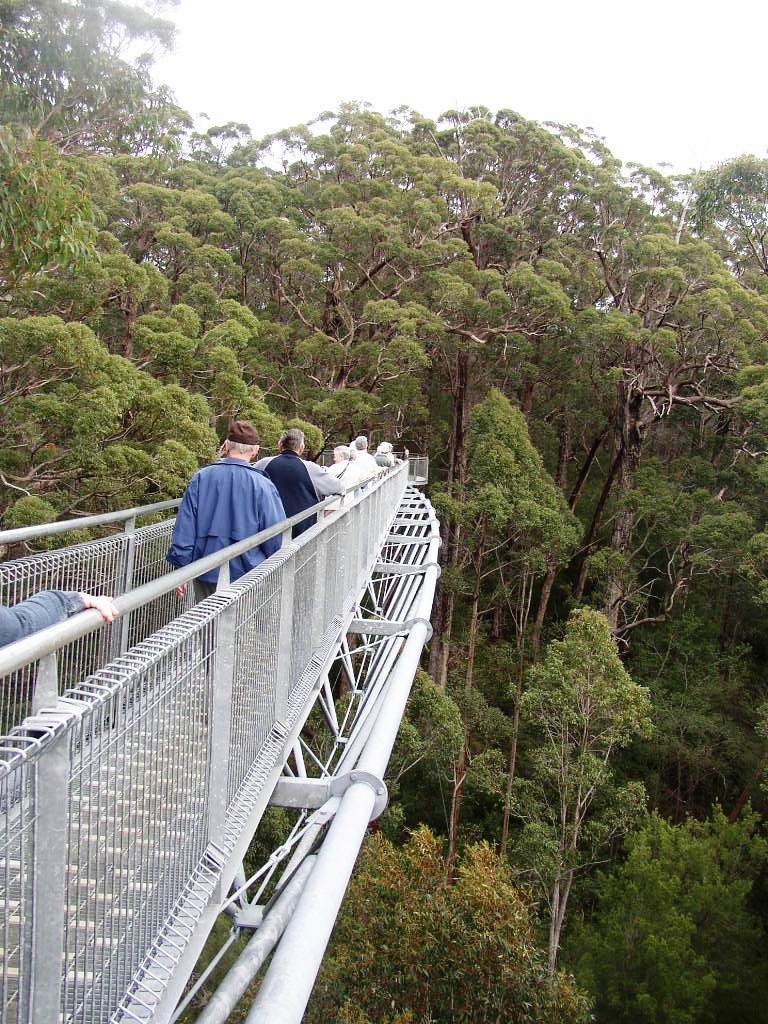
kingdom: Plantae
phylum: Tracheophyta
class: Magnoliopsida
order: Myrtales
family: Myrtaceae
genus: Eucalyptus
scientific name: Eucalyptus jacksonii
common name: Red tingle
